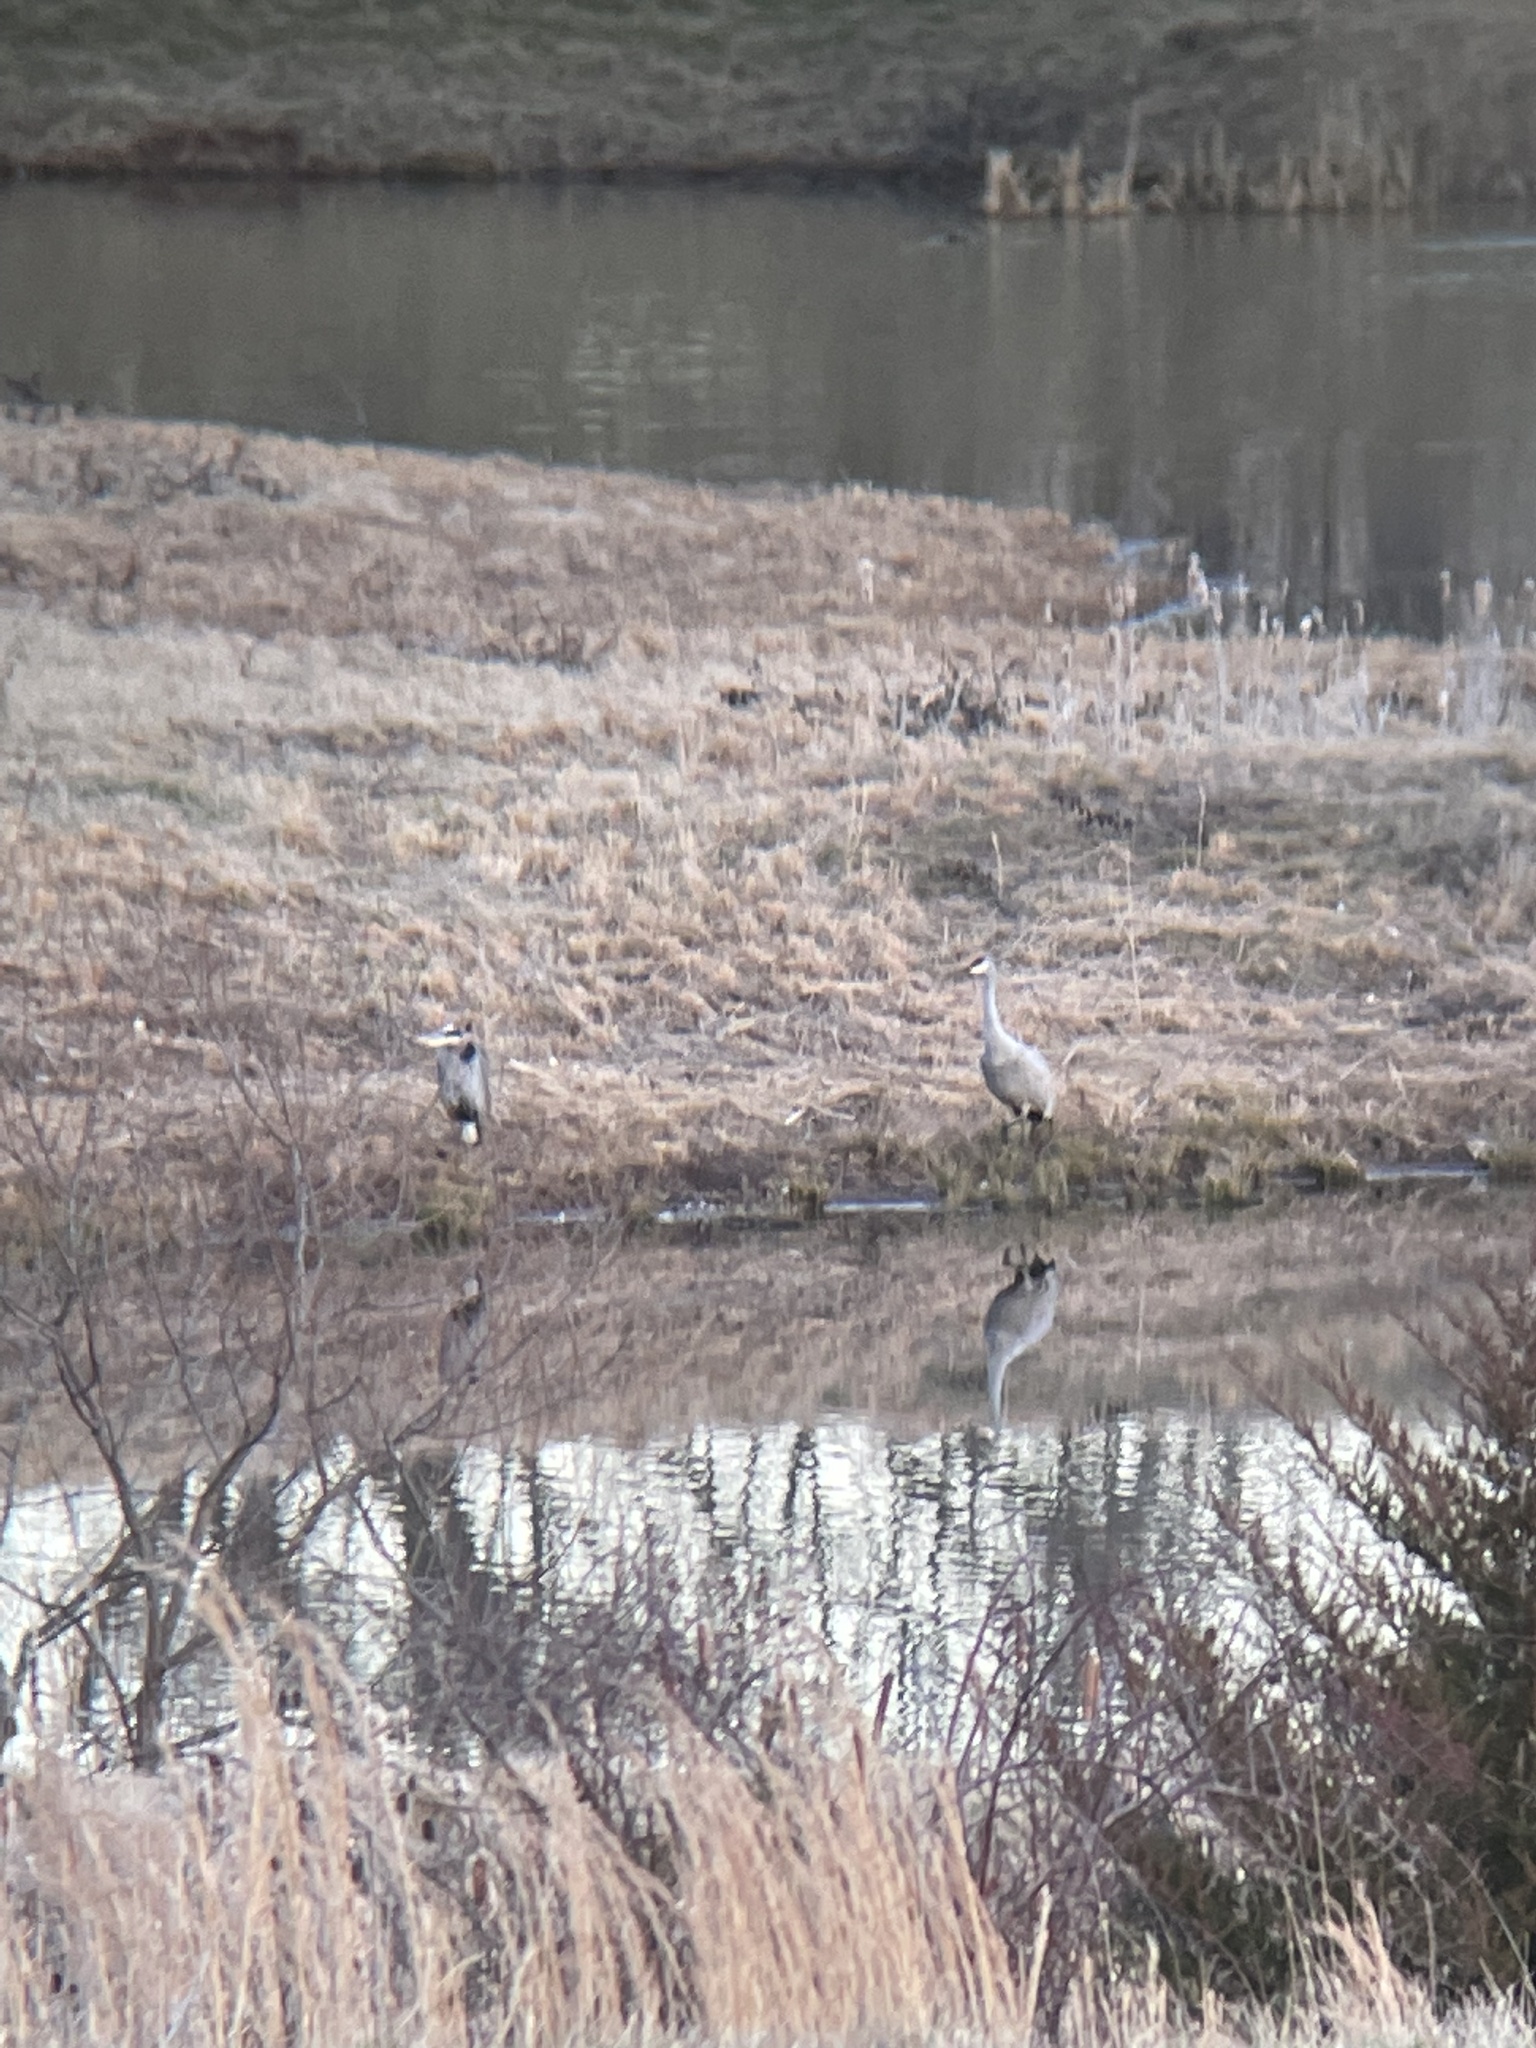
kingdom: Animalia
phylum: Chordata
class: Aves
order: Gruiformes
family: Gruidae
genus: Grus
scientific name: Grus canadensis
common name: Sandhill crane
